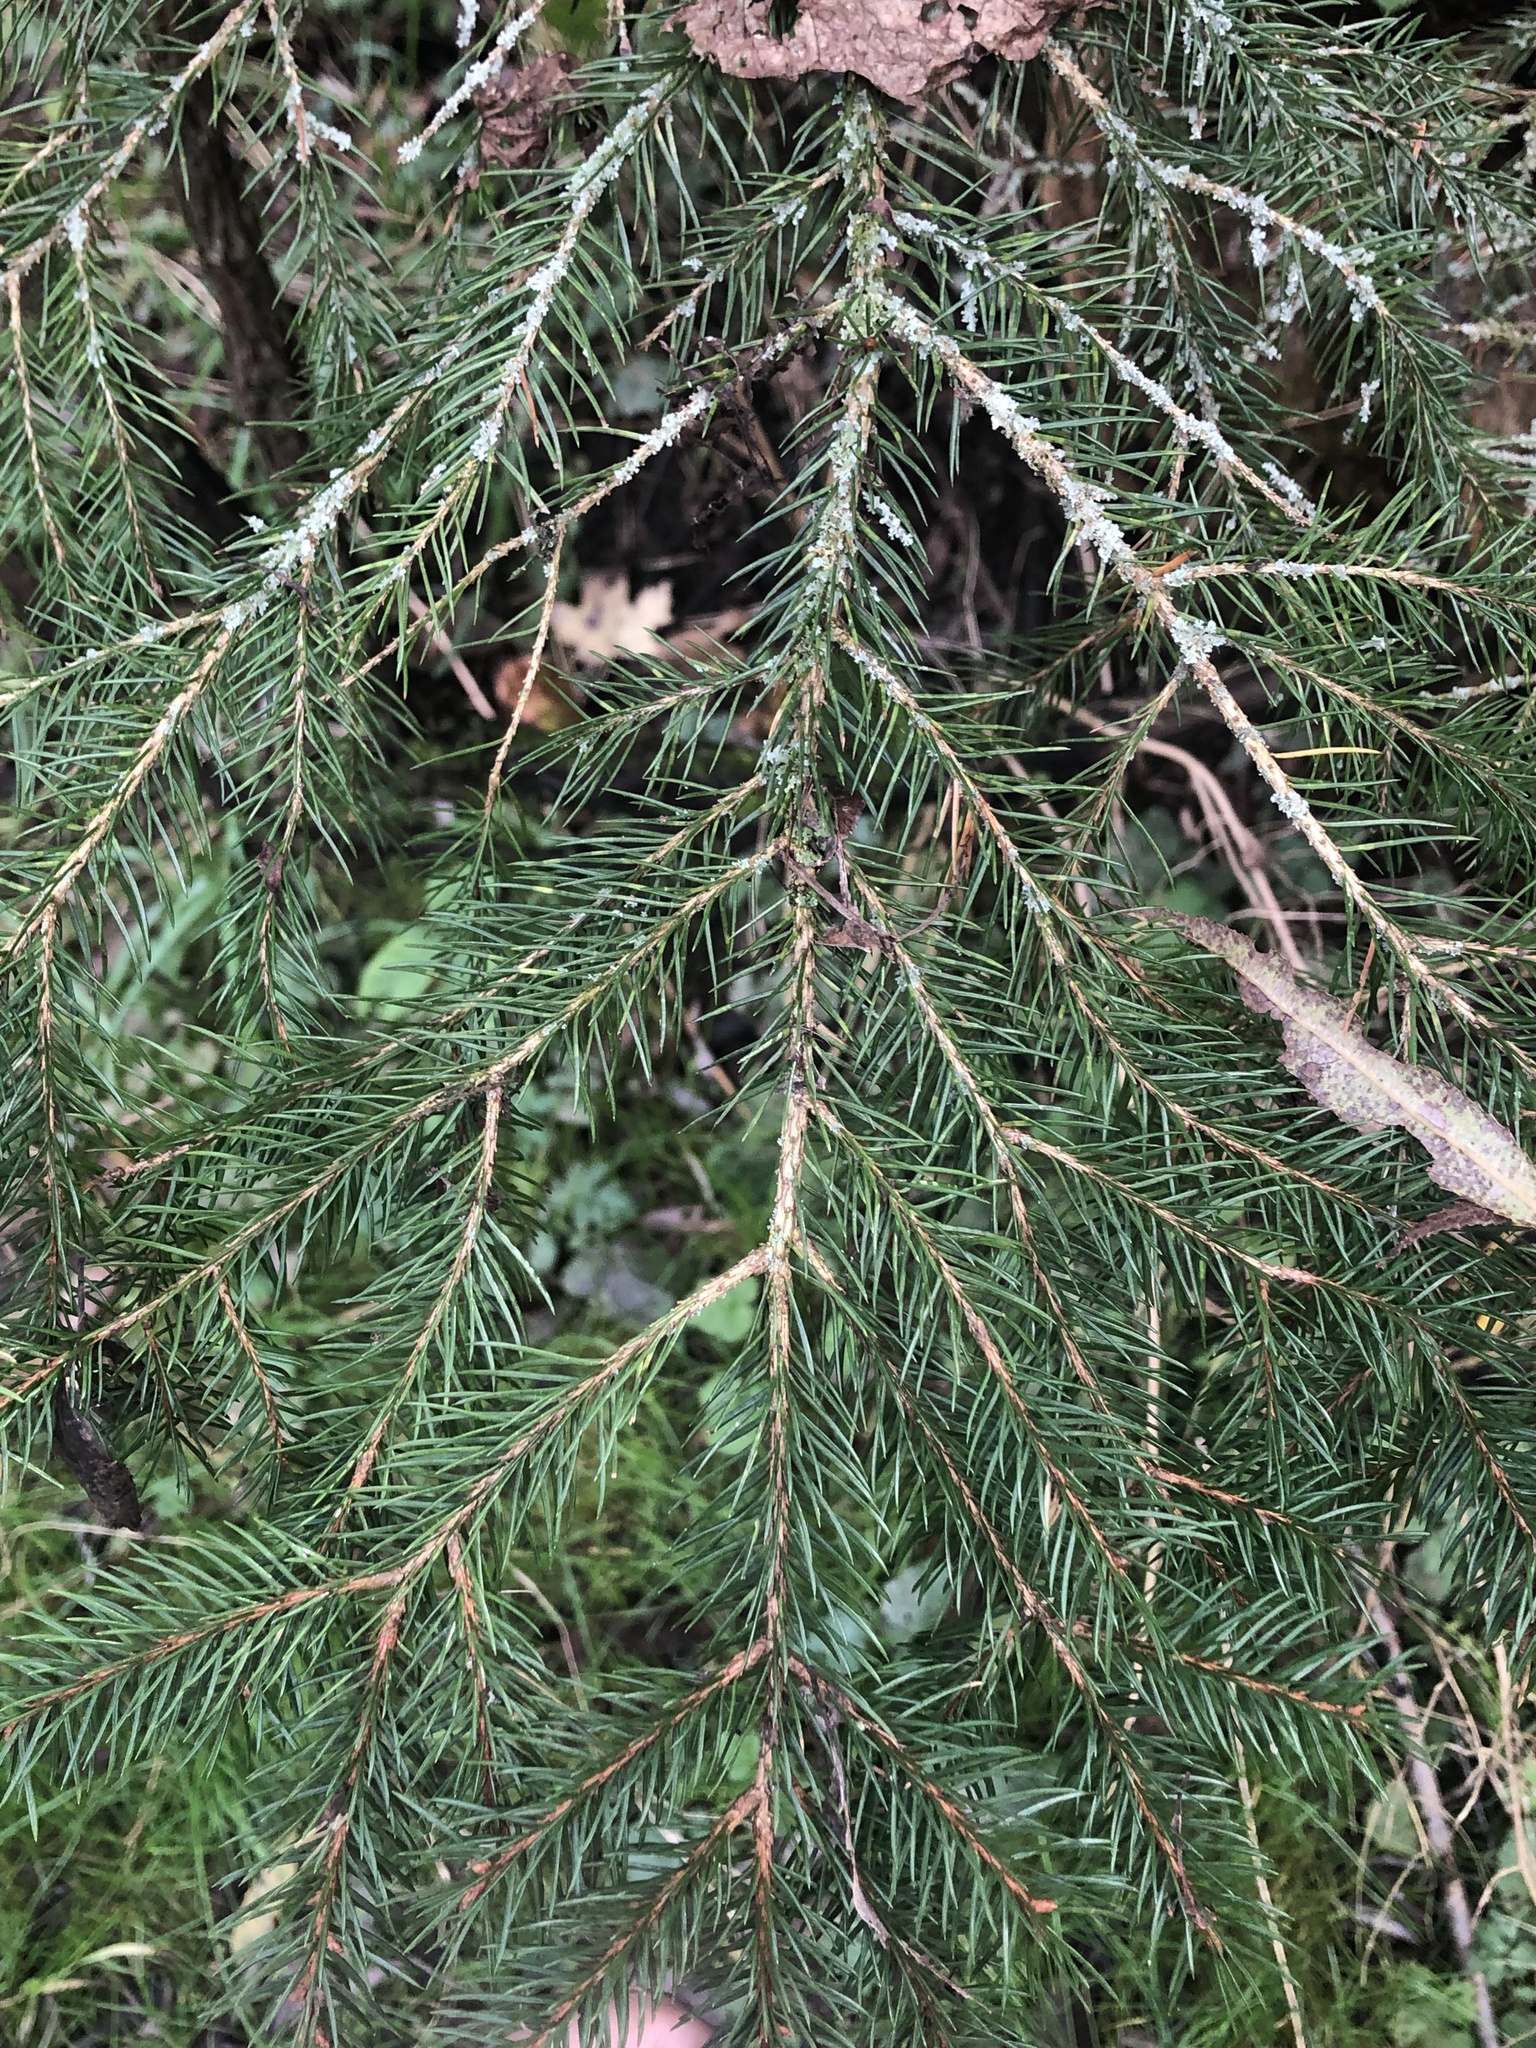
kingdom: Plantae
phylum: Tracheophyta
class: Pinopsida
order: Pinales
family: Pinaceae
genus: Picea
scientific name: Picea abies
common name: Norway spruce
